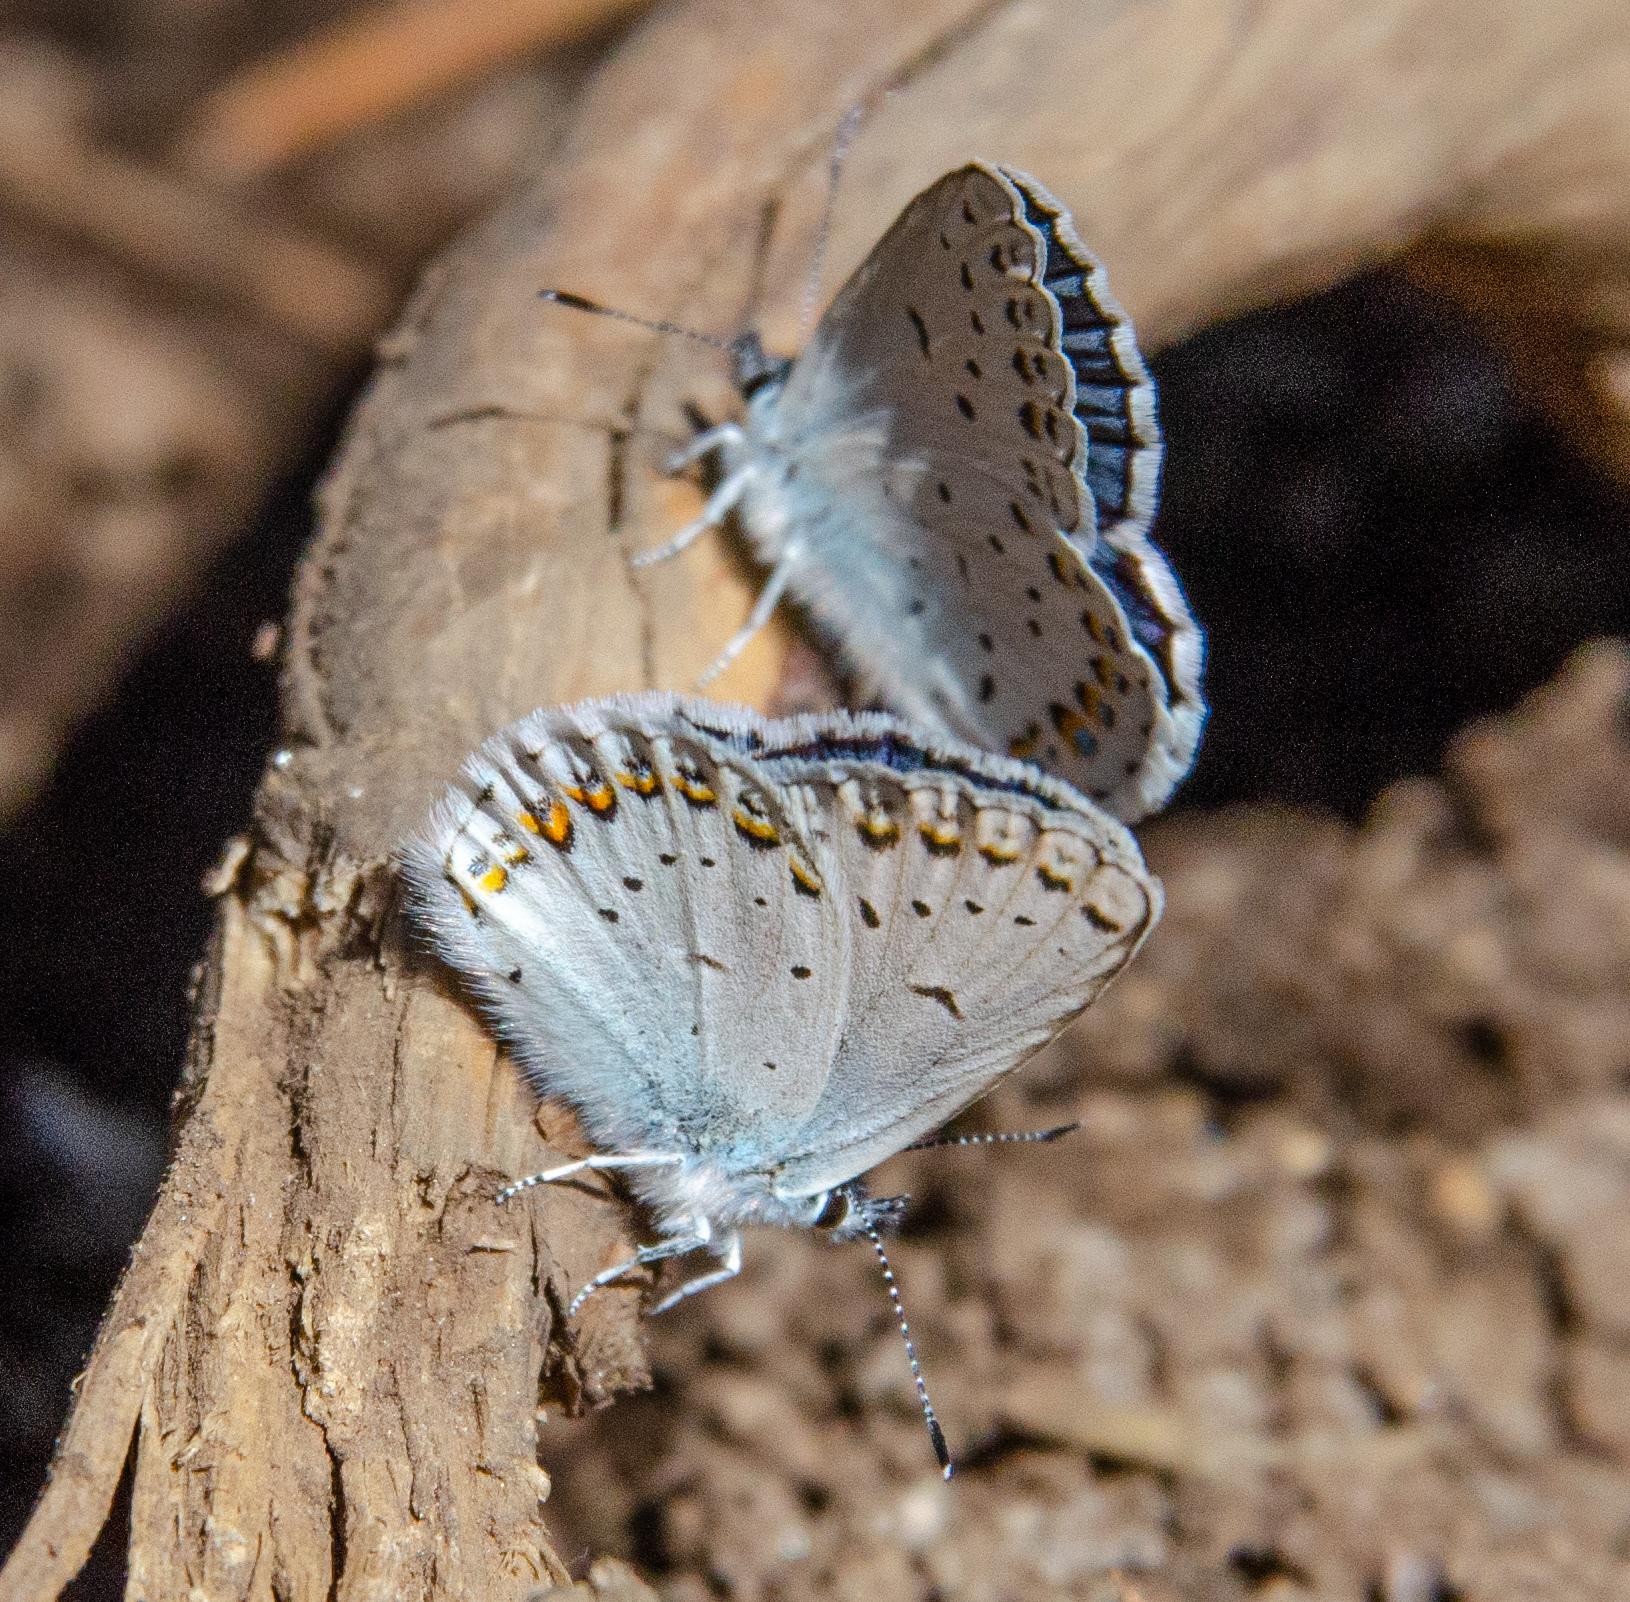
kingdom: Animalia
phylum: Arthropoda
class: Insecta
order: Lepidoptera
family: Lycaenidae
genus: Lycaeides
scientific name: Lycaeides anna
